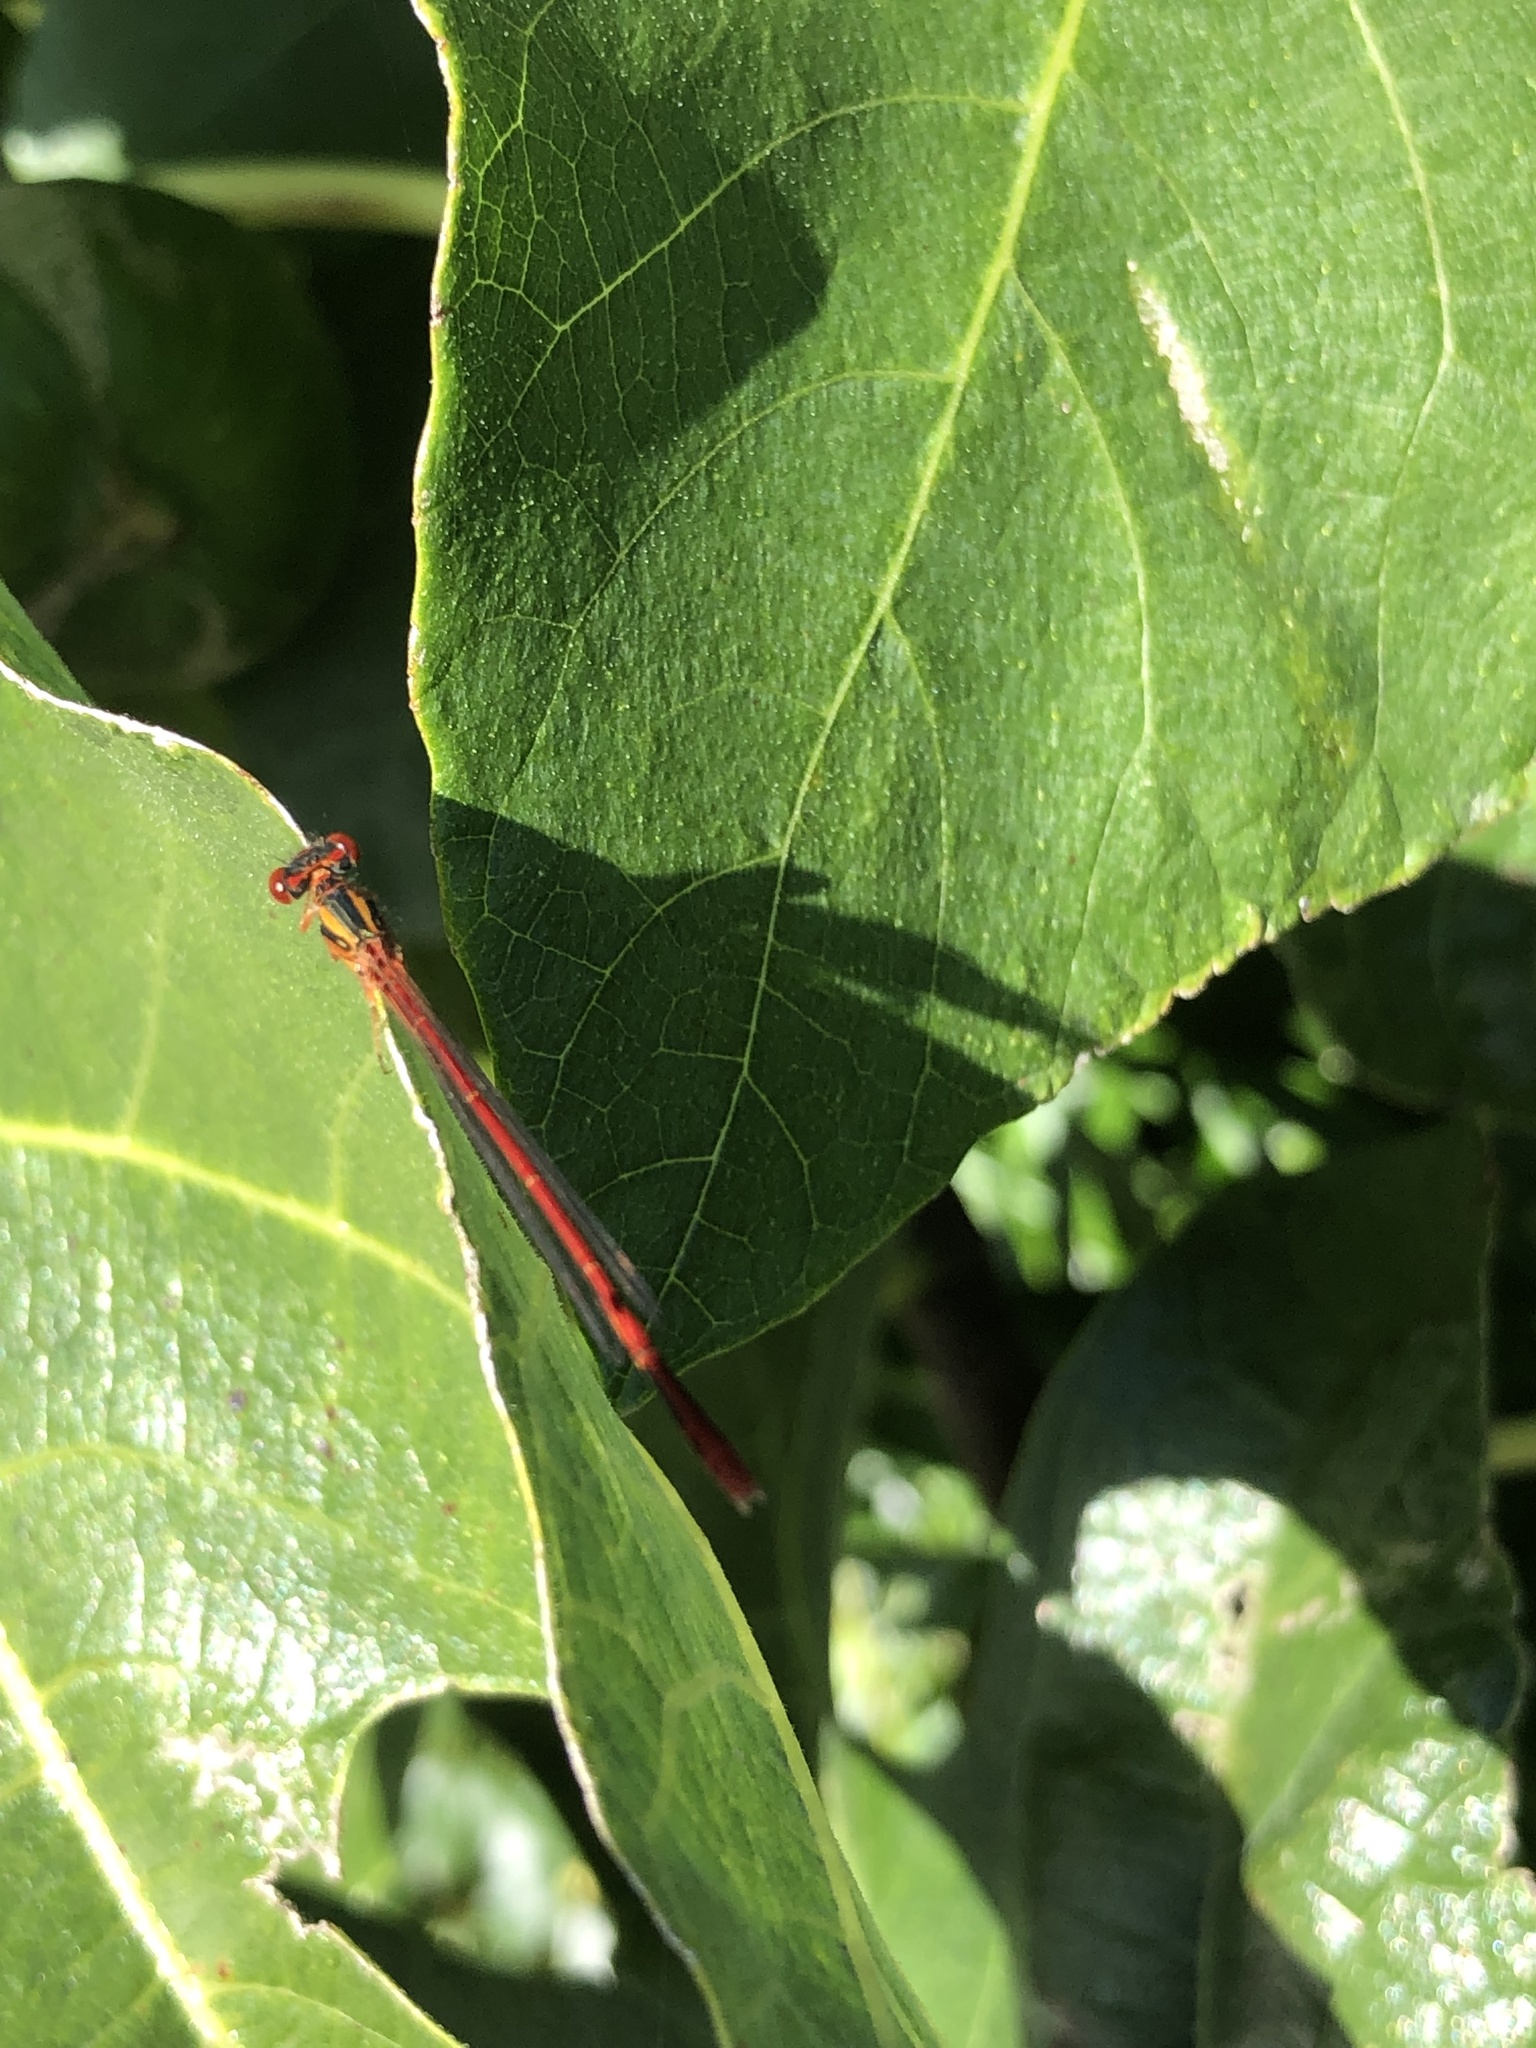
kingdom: Animalia
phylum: Arthropoda
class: Insecta
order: Odonata
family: Coenagrionidae
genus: Xanthocnemis
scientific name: Xanthocnemis zealandica
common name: Common redcoat damselfly
